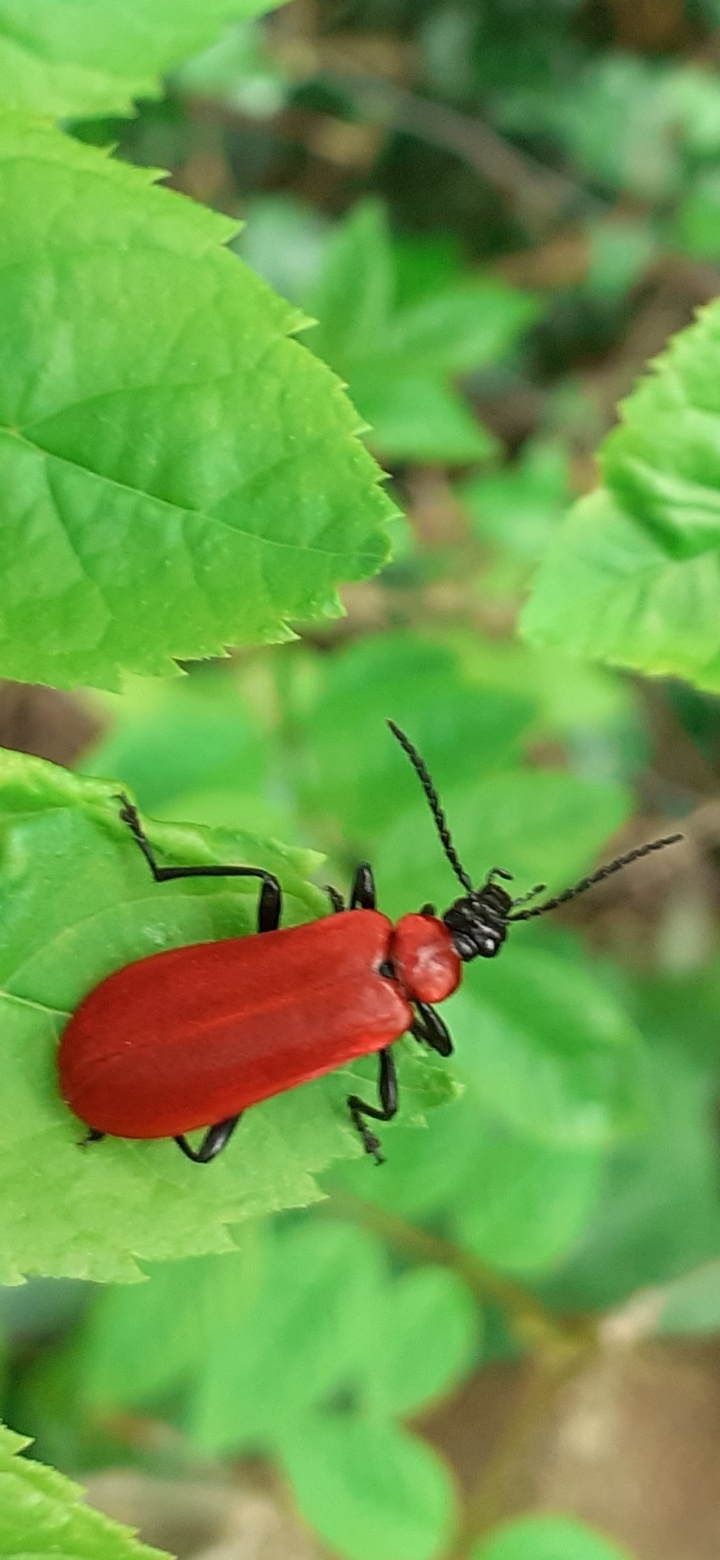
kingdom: Animalia
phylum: Arthropoda
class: Insecta
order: Coleoptera
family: Pyrochroidae
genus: Pyrochroa
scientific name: Pyrochroa coccinea
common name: Black-headed cardinal beetle
